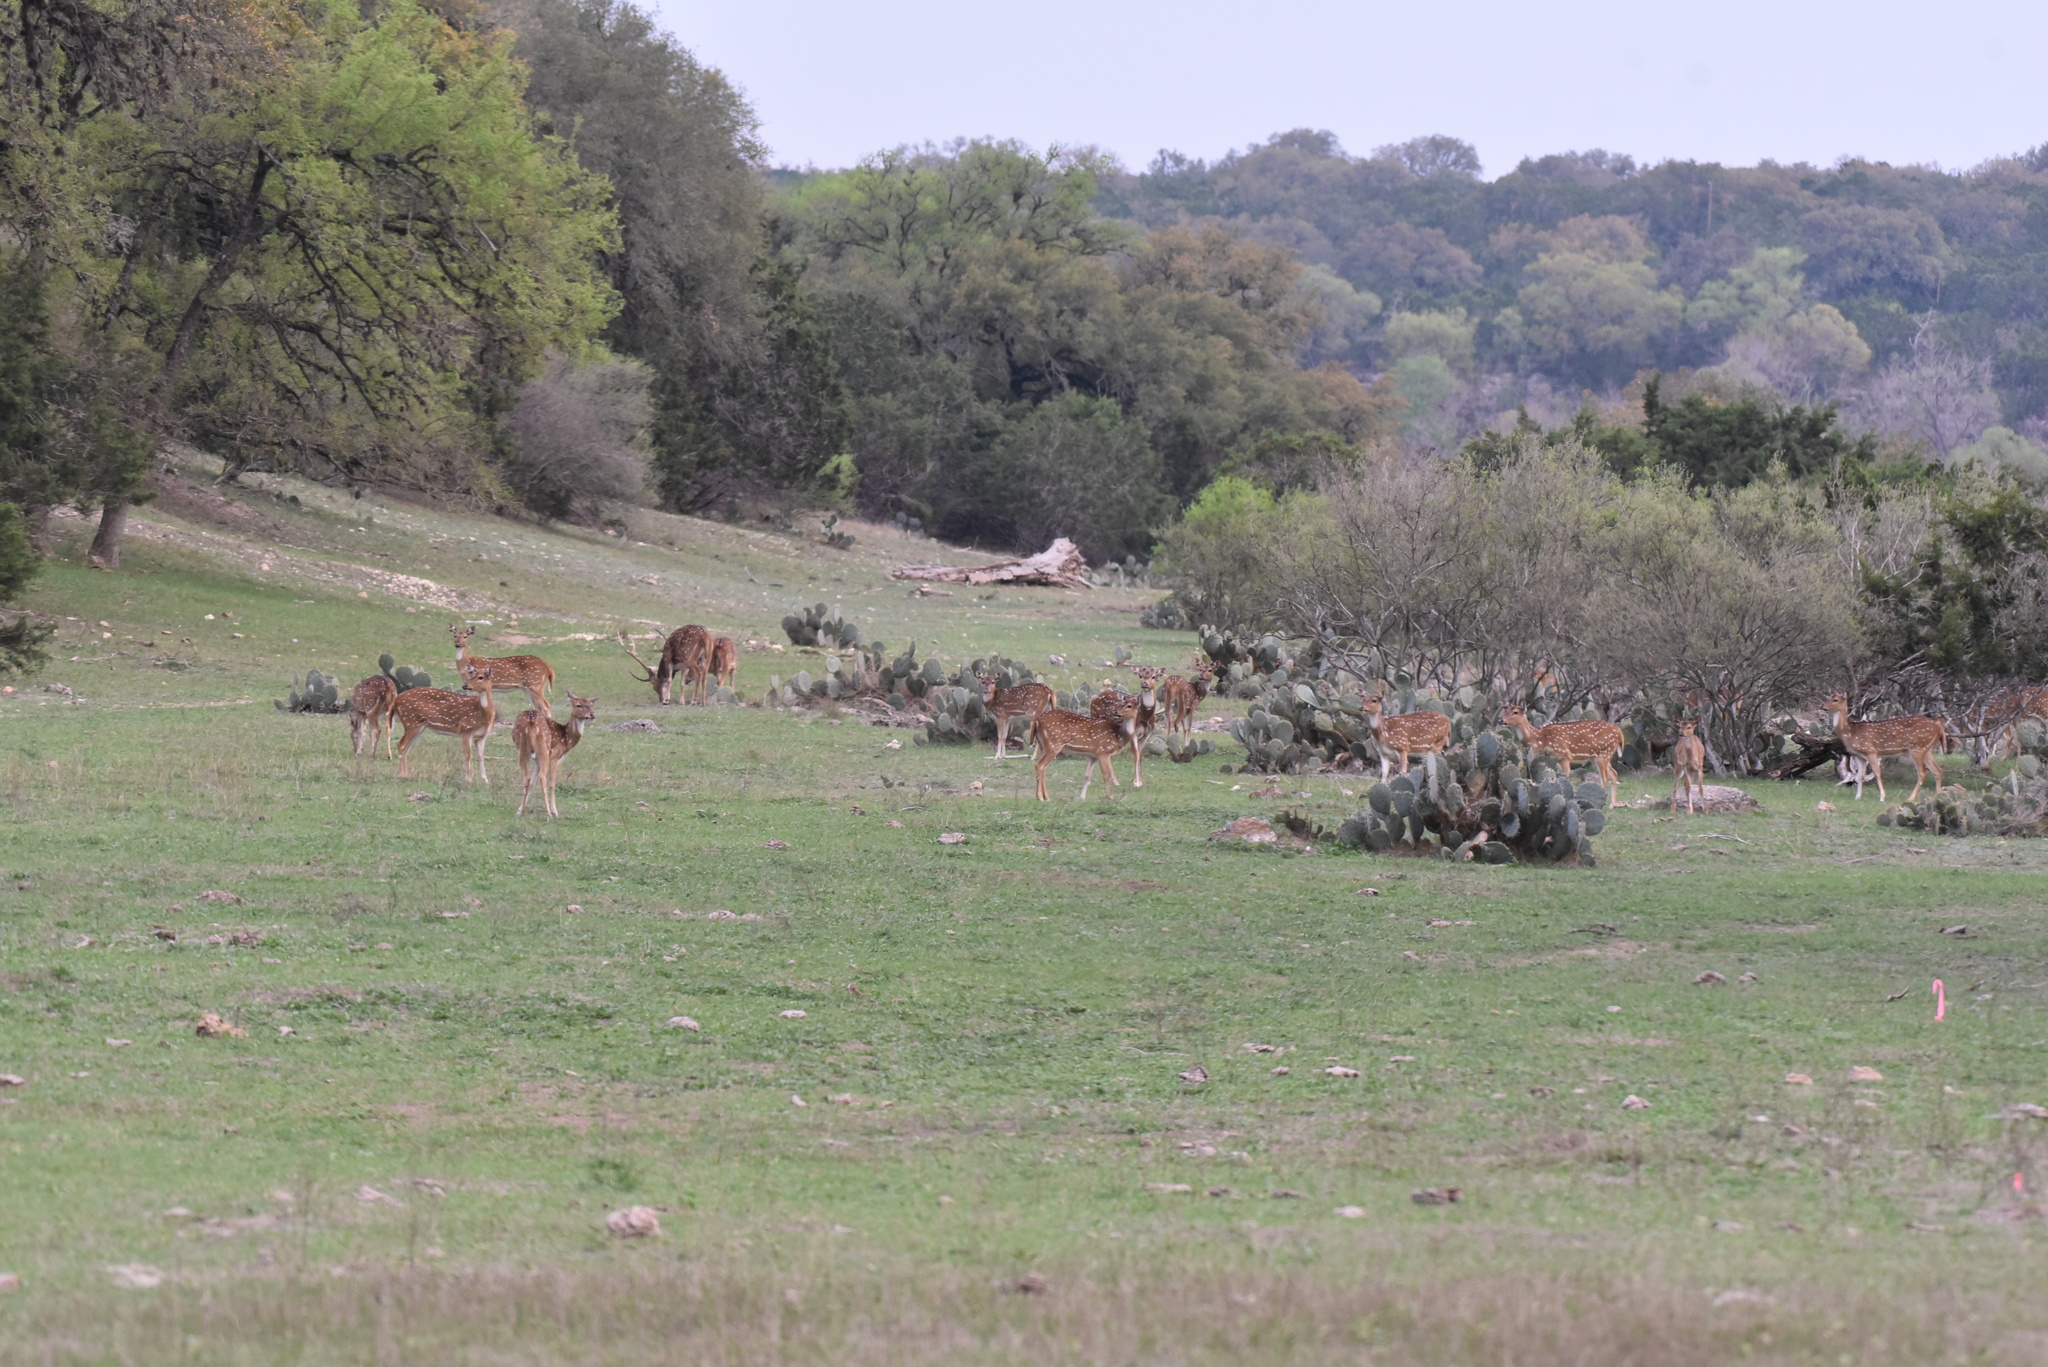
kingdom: Animalia
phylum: Chordata
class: Mammalia
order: Artiodactyla
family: Cervidae
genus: Axis
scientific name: Axis axis
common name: Chital
